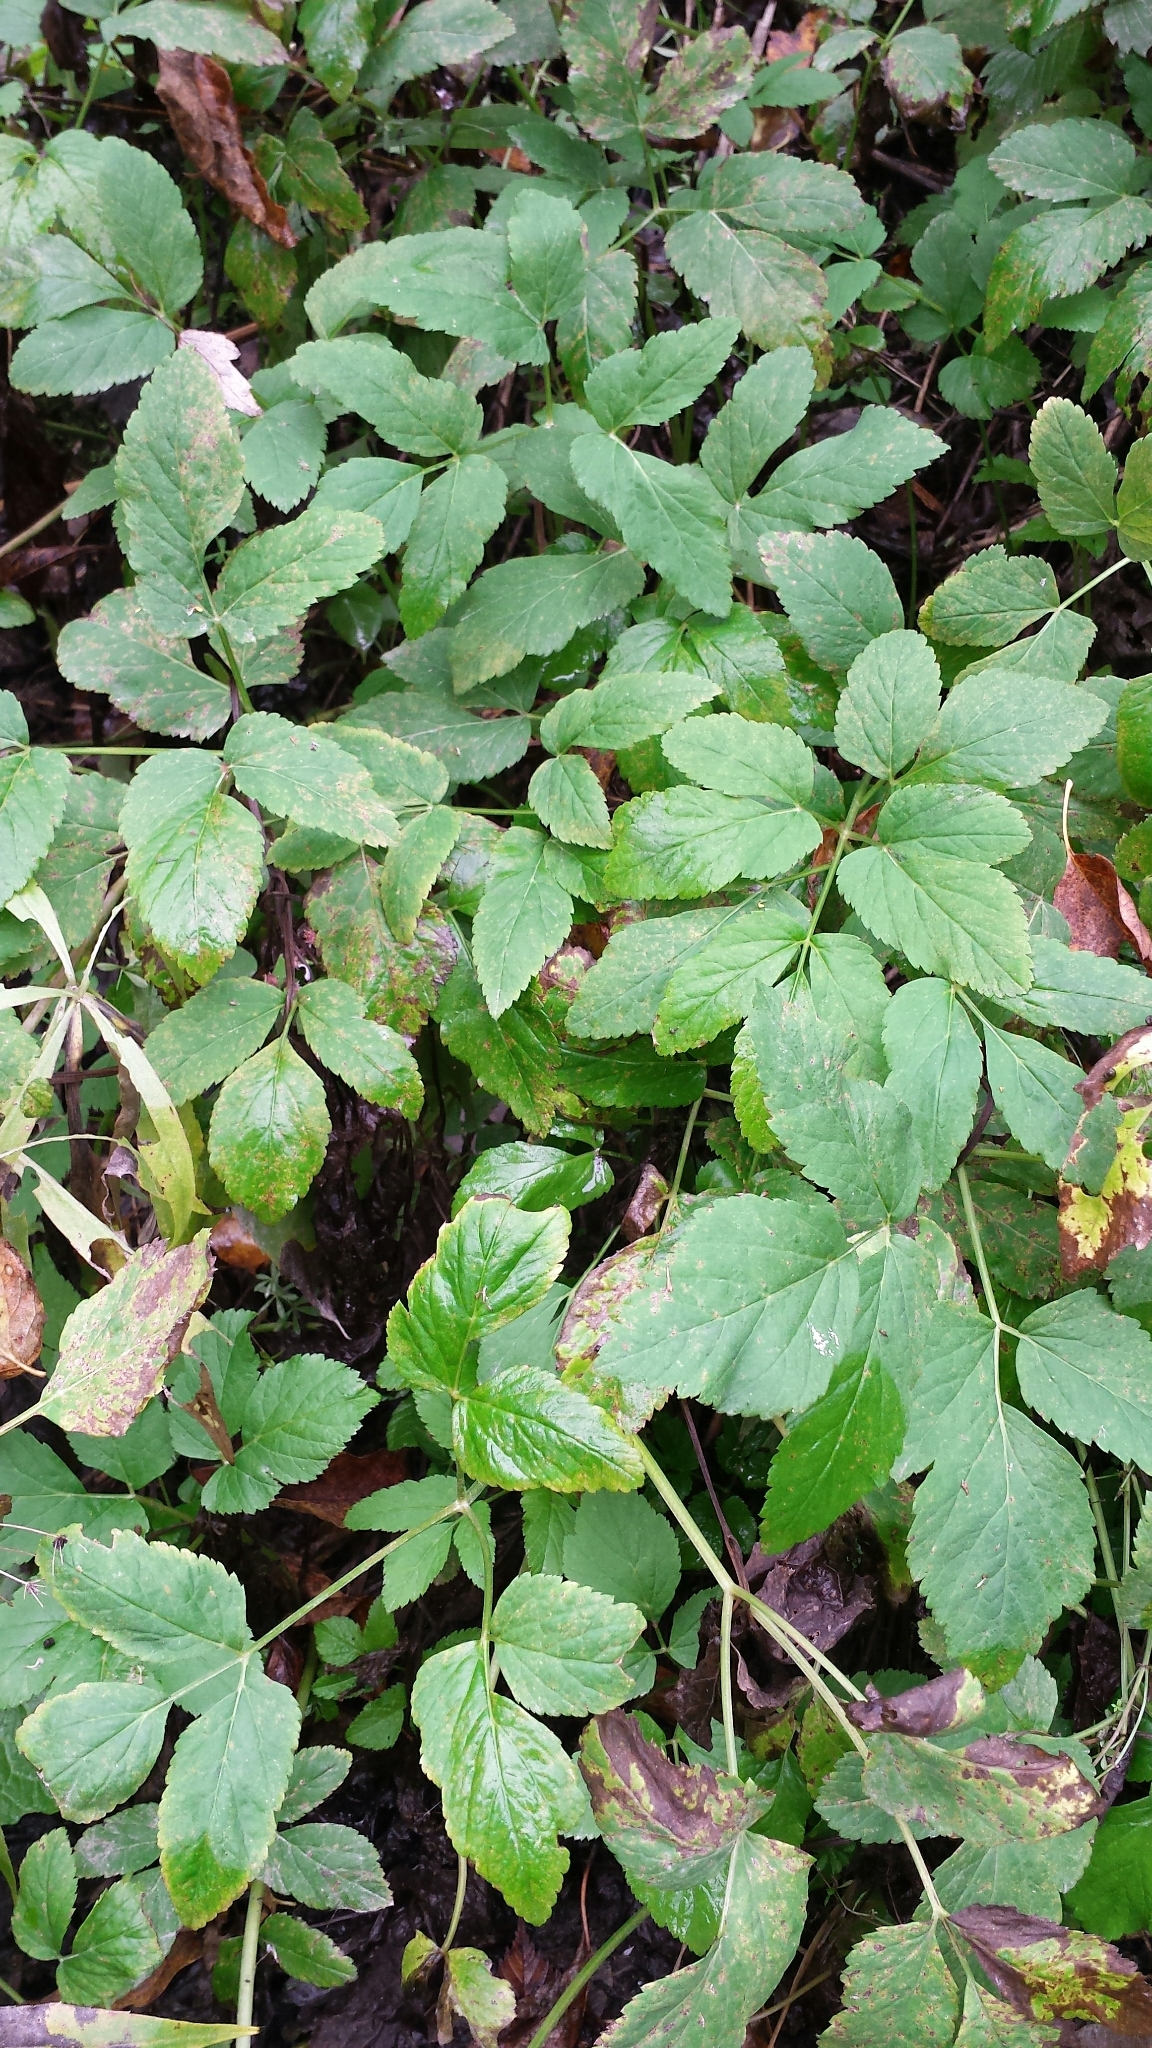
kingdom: Plantae
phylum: Tracheophyta
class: Magnoliopsida
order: Apiales
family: Apiaceae
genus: Aegopodium
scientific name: Aegopodium podagraria
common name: Ground-elder
